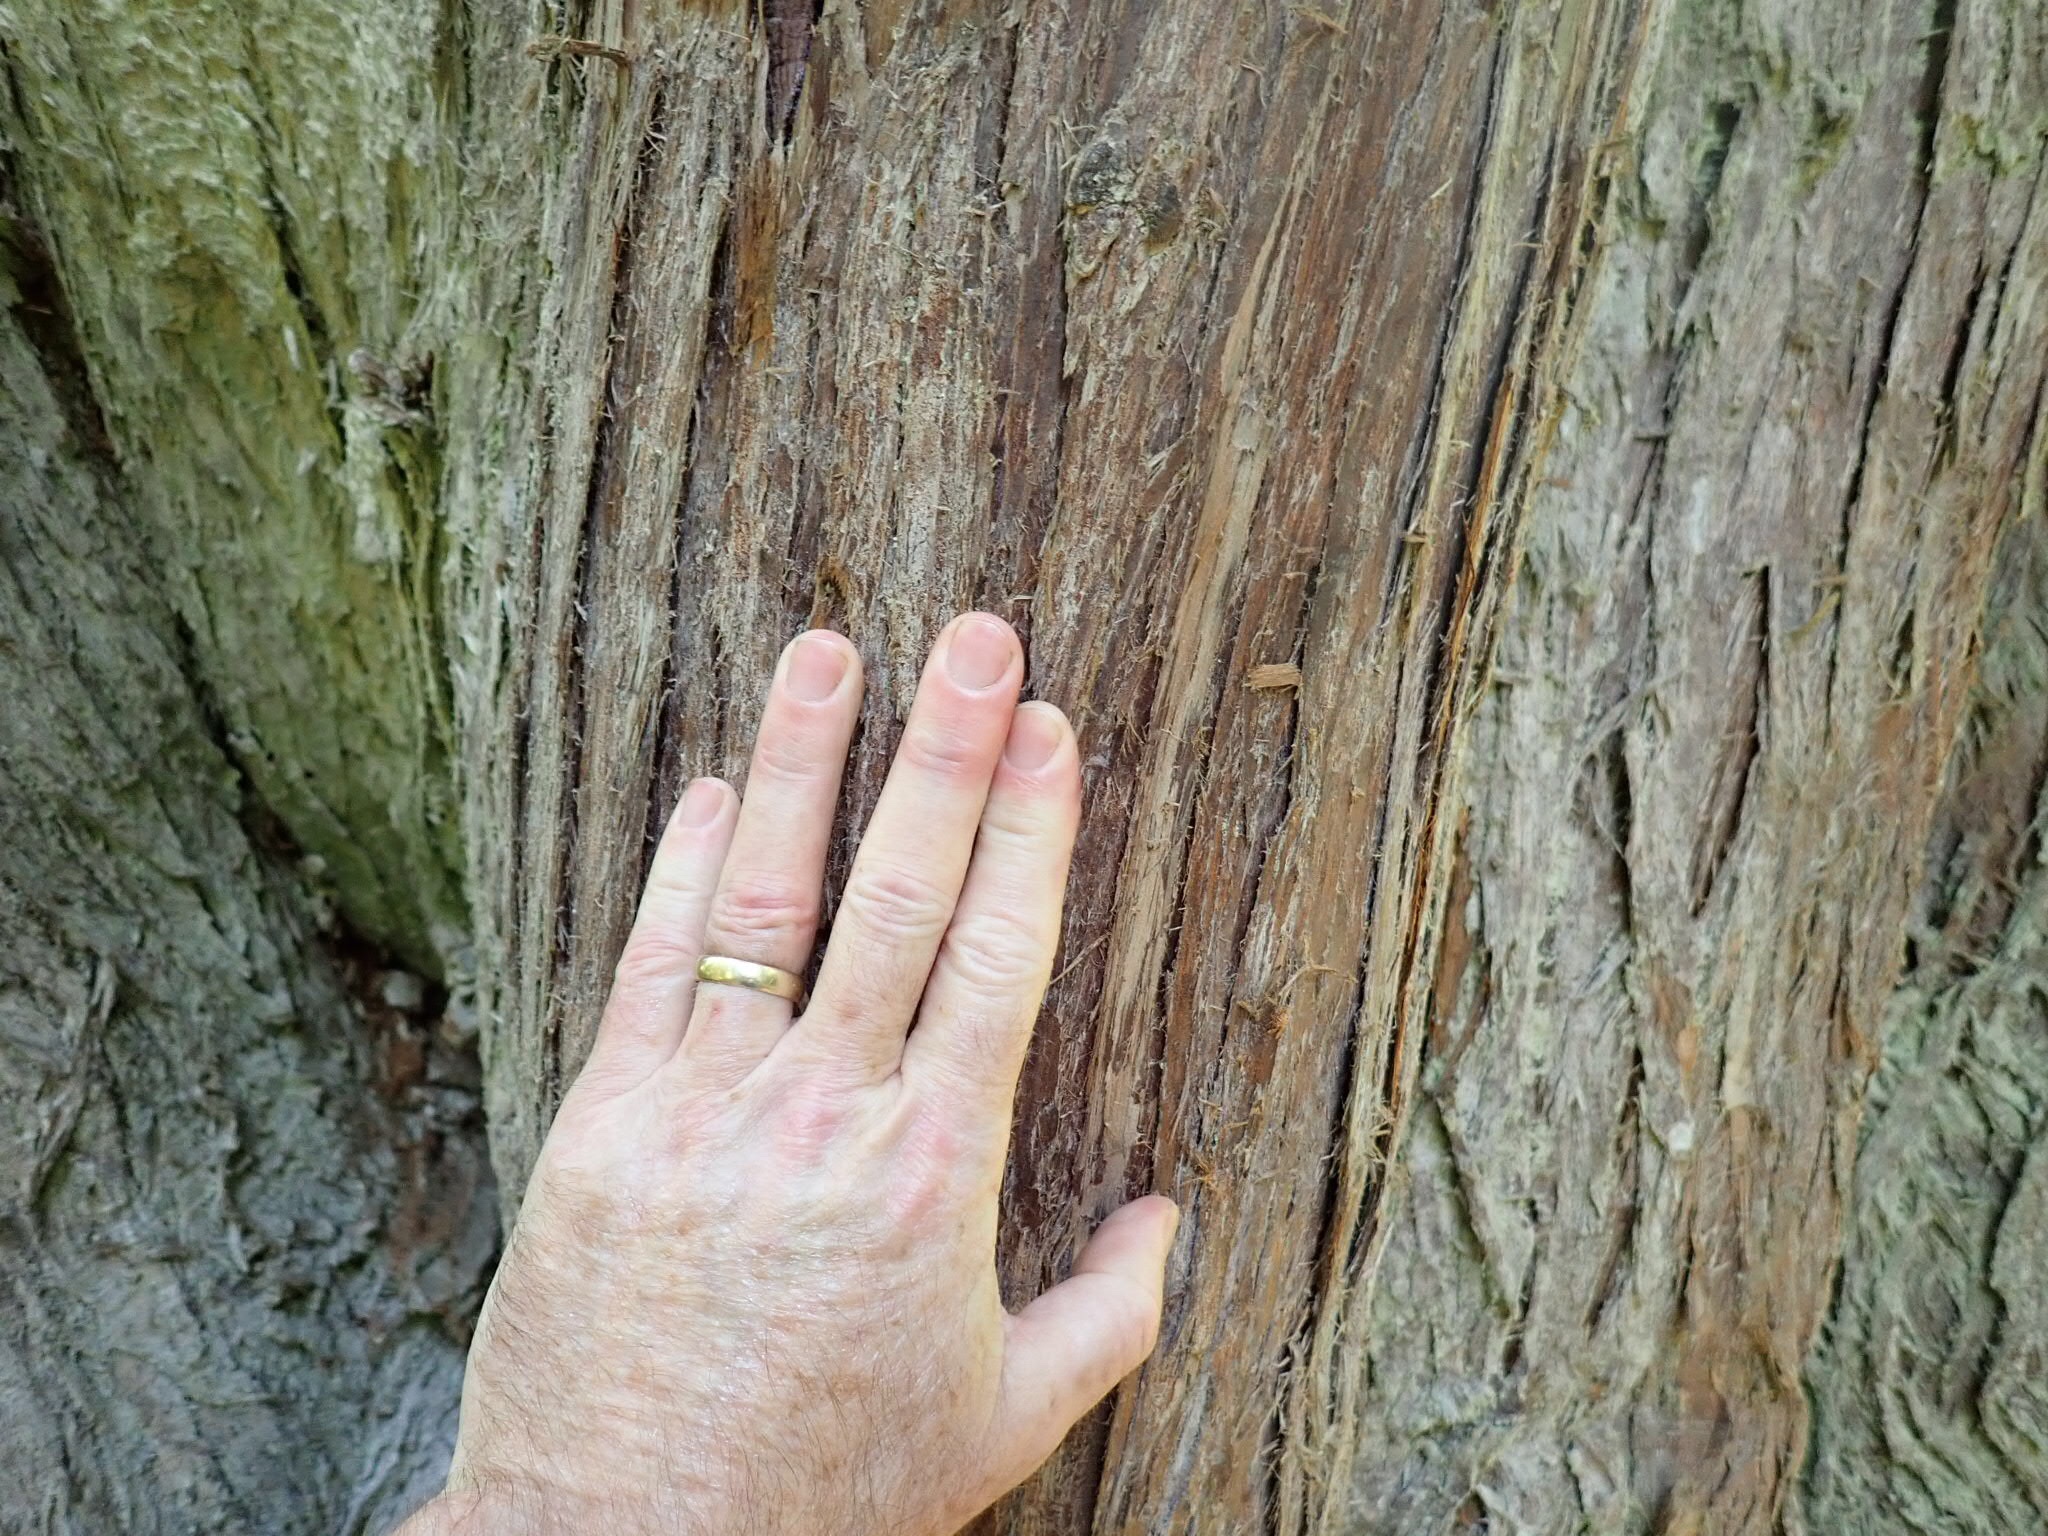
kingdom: Plantae
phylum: Tracheophyta
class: Pinopsida
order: Pinales
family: Cupressaceae
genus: Thuja
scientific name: Thuja plicata
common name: Western red-cedar
